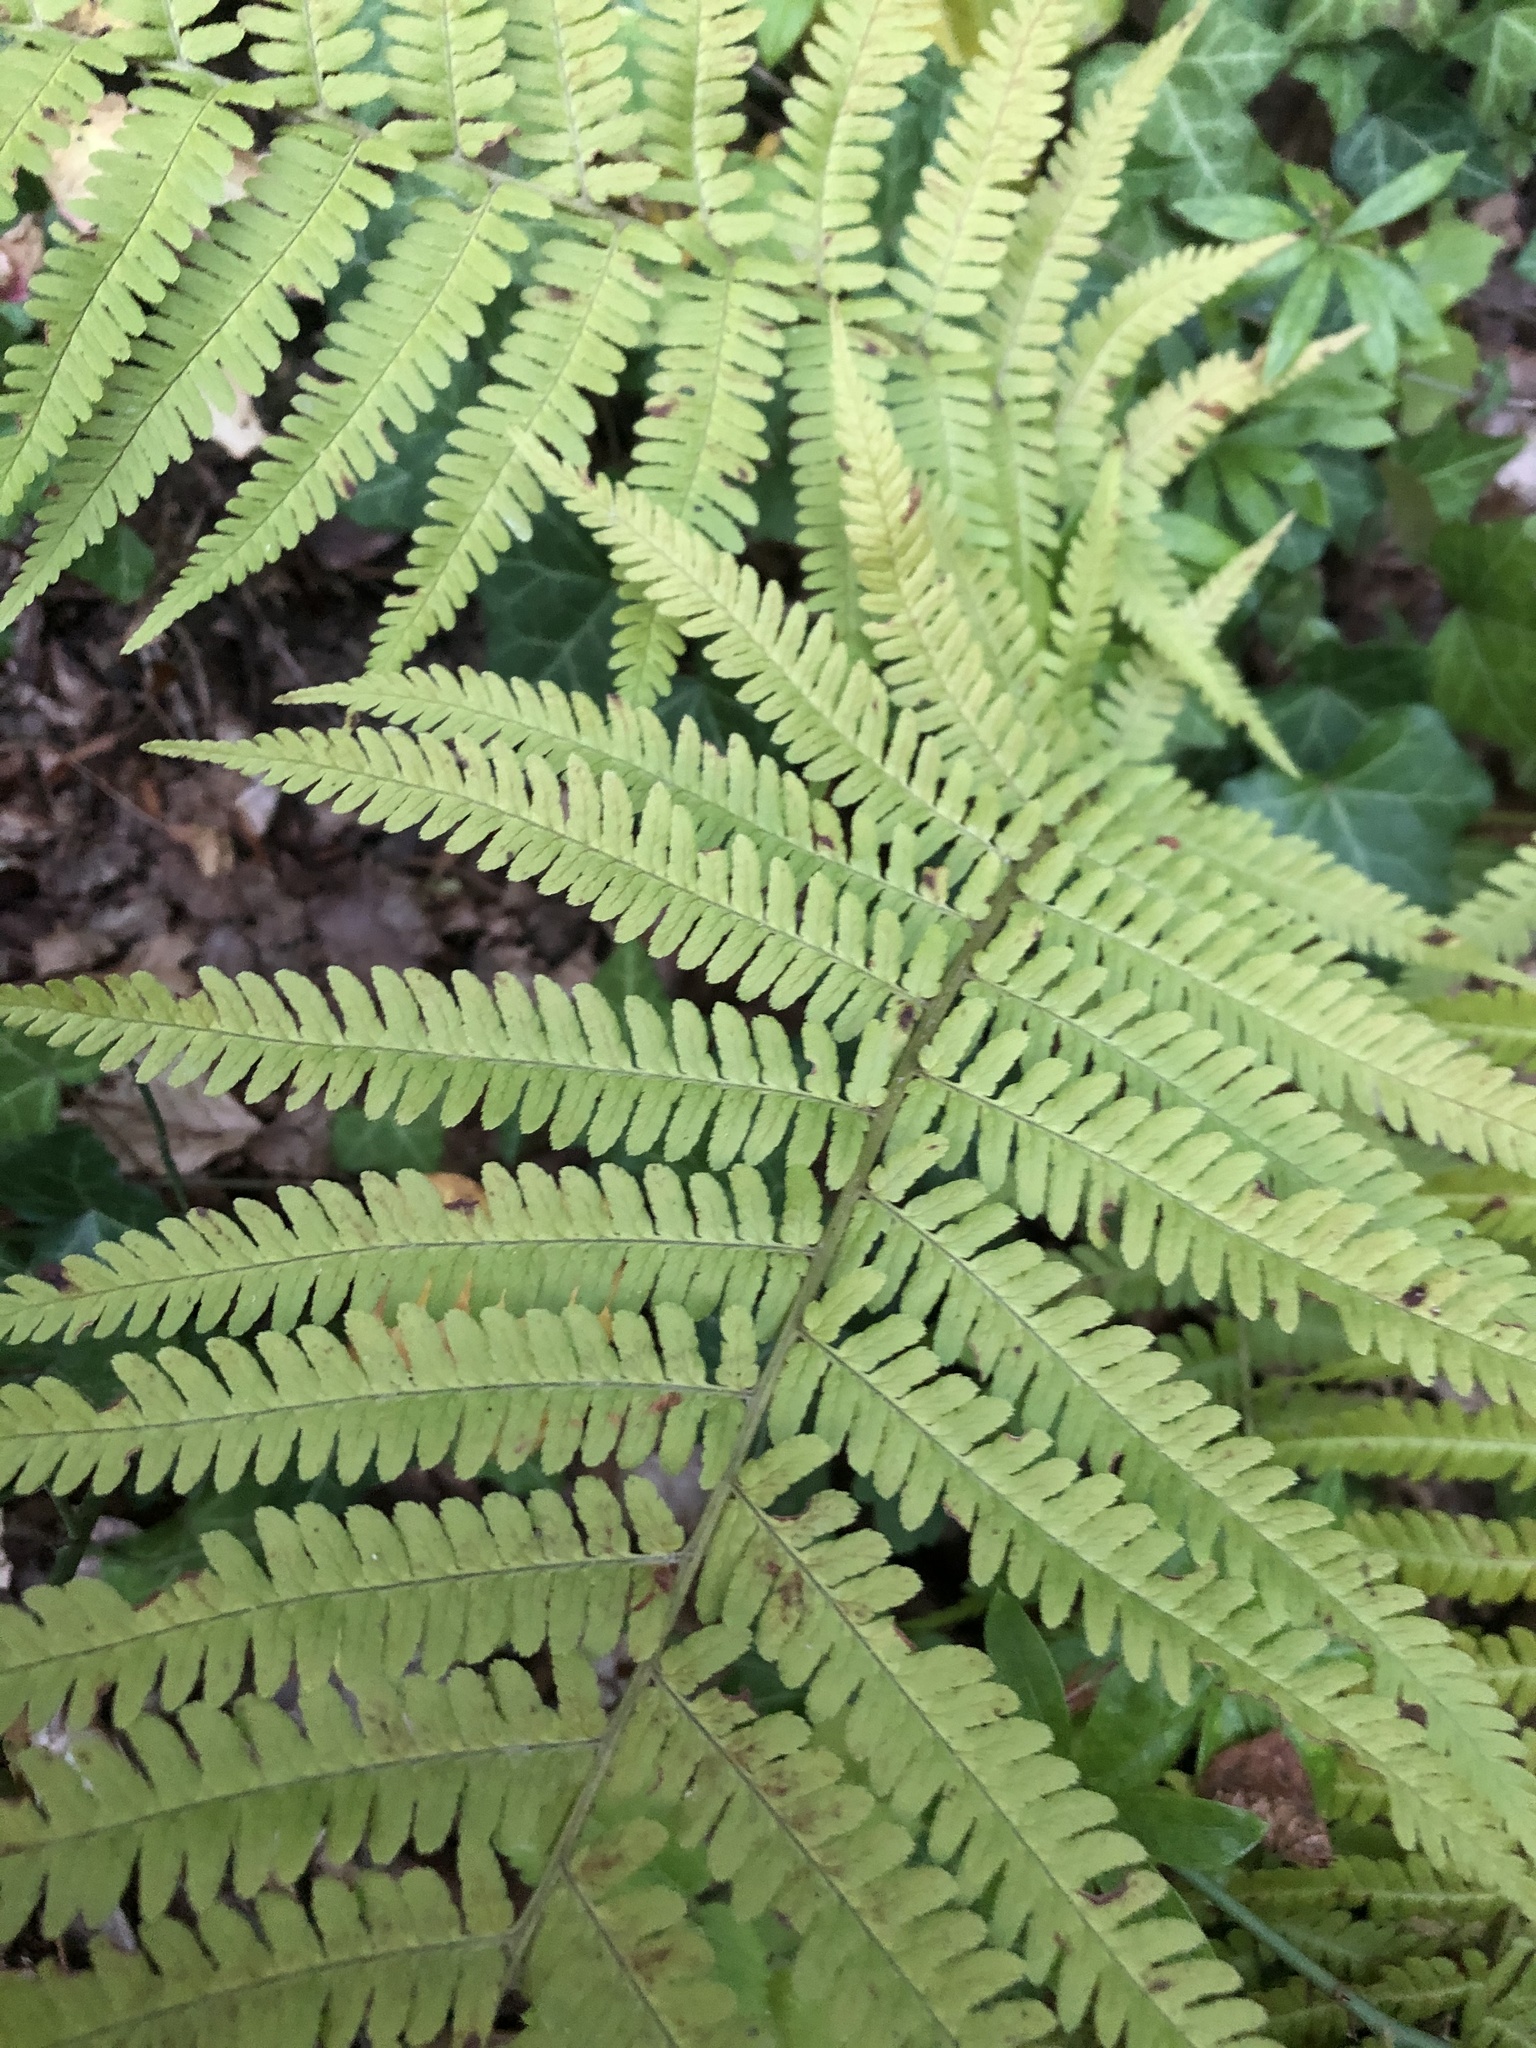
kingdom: Plantae
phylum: Tracheophyta
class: Polypodiopsida
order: Polypodiales
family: Dryopteridaceae
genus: Dryopteris
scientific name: Dryopteris filix-mas
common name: Male fern
